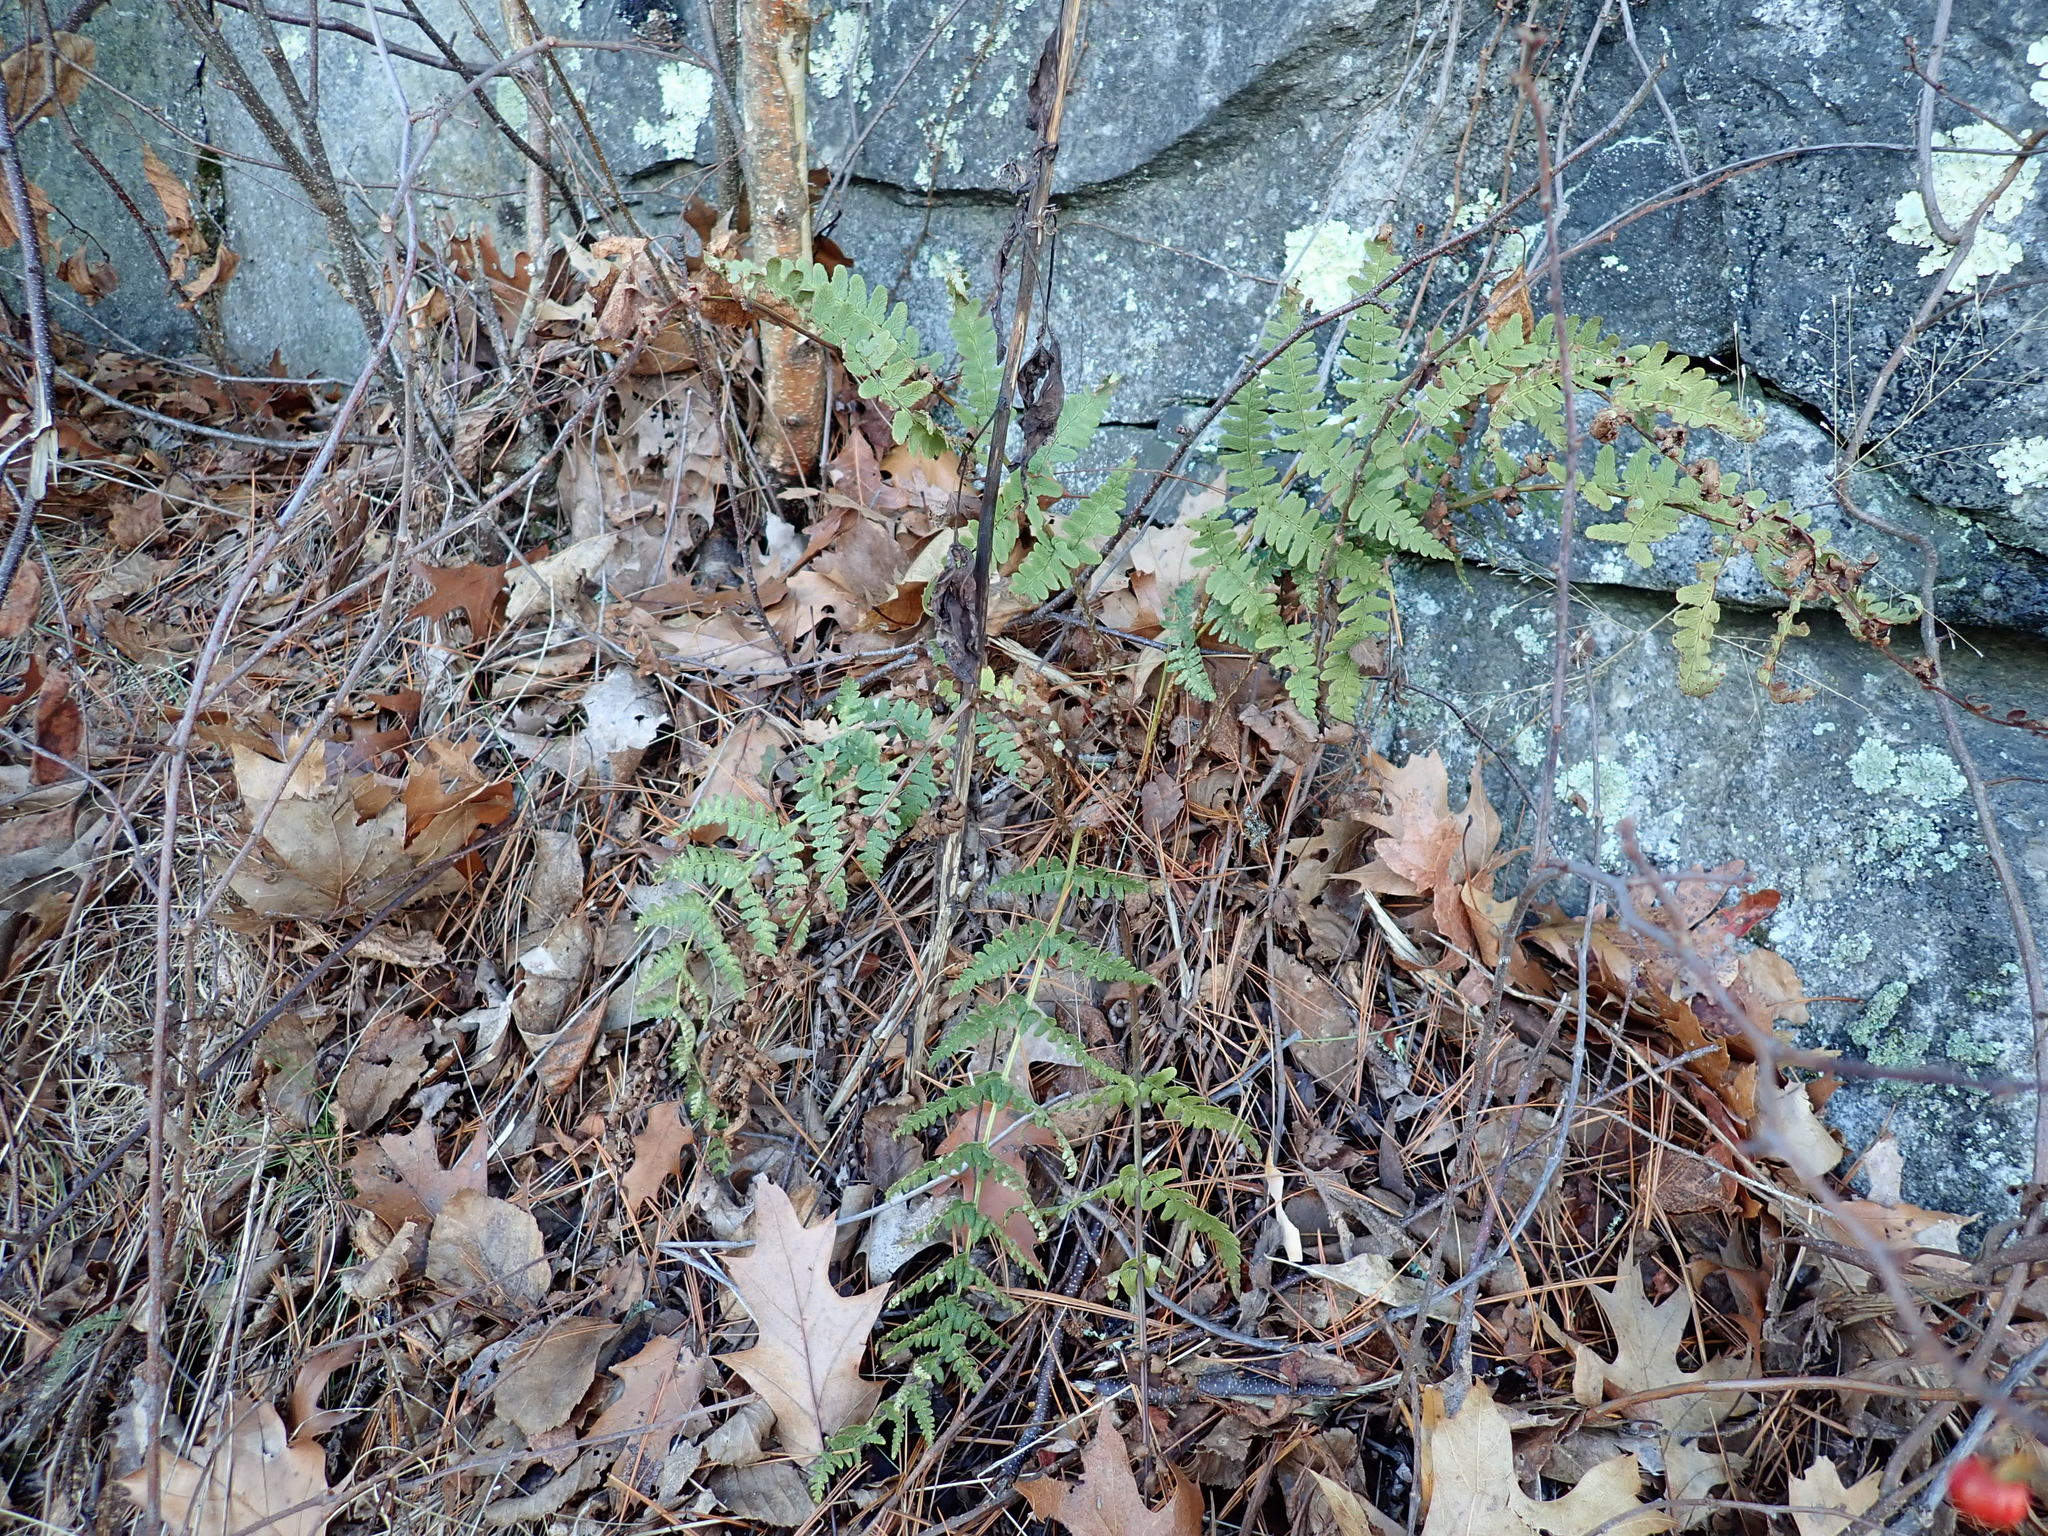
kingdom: Plantae
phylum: Tracheophyta
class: Polypodiopsida
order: Polypodiales
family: Dryopteridaceae
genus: Dryopteris
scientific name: Dryopteris marginalis
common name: Marginal wood fern
